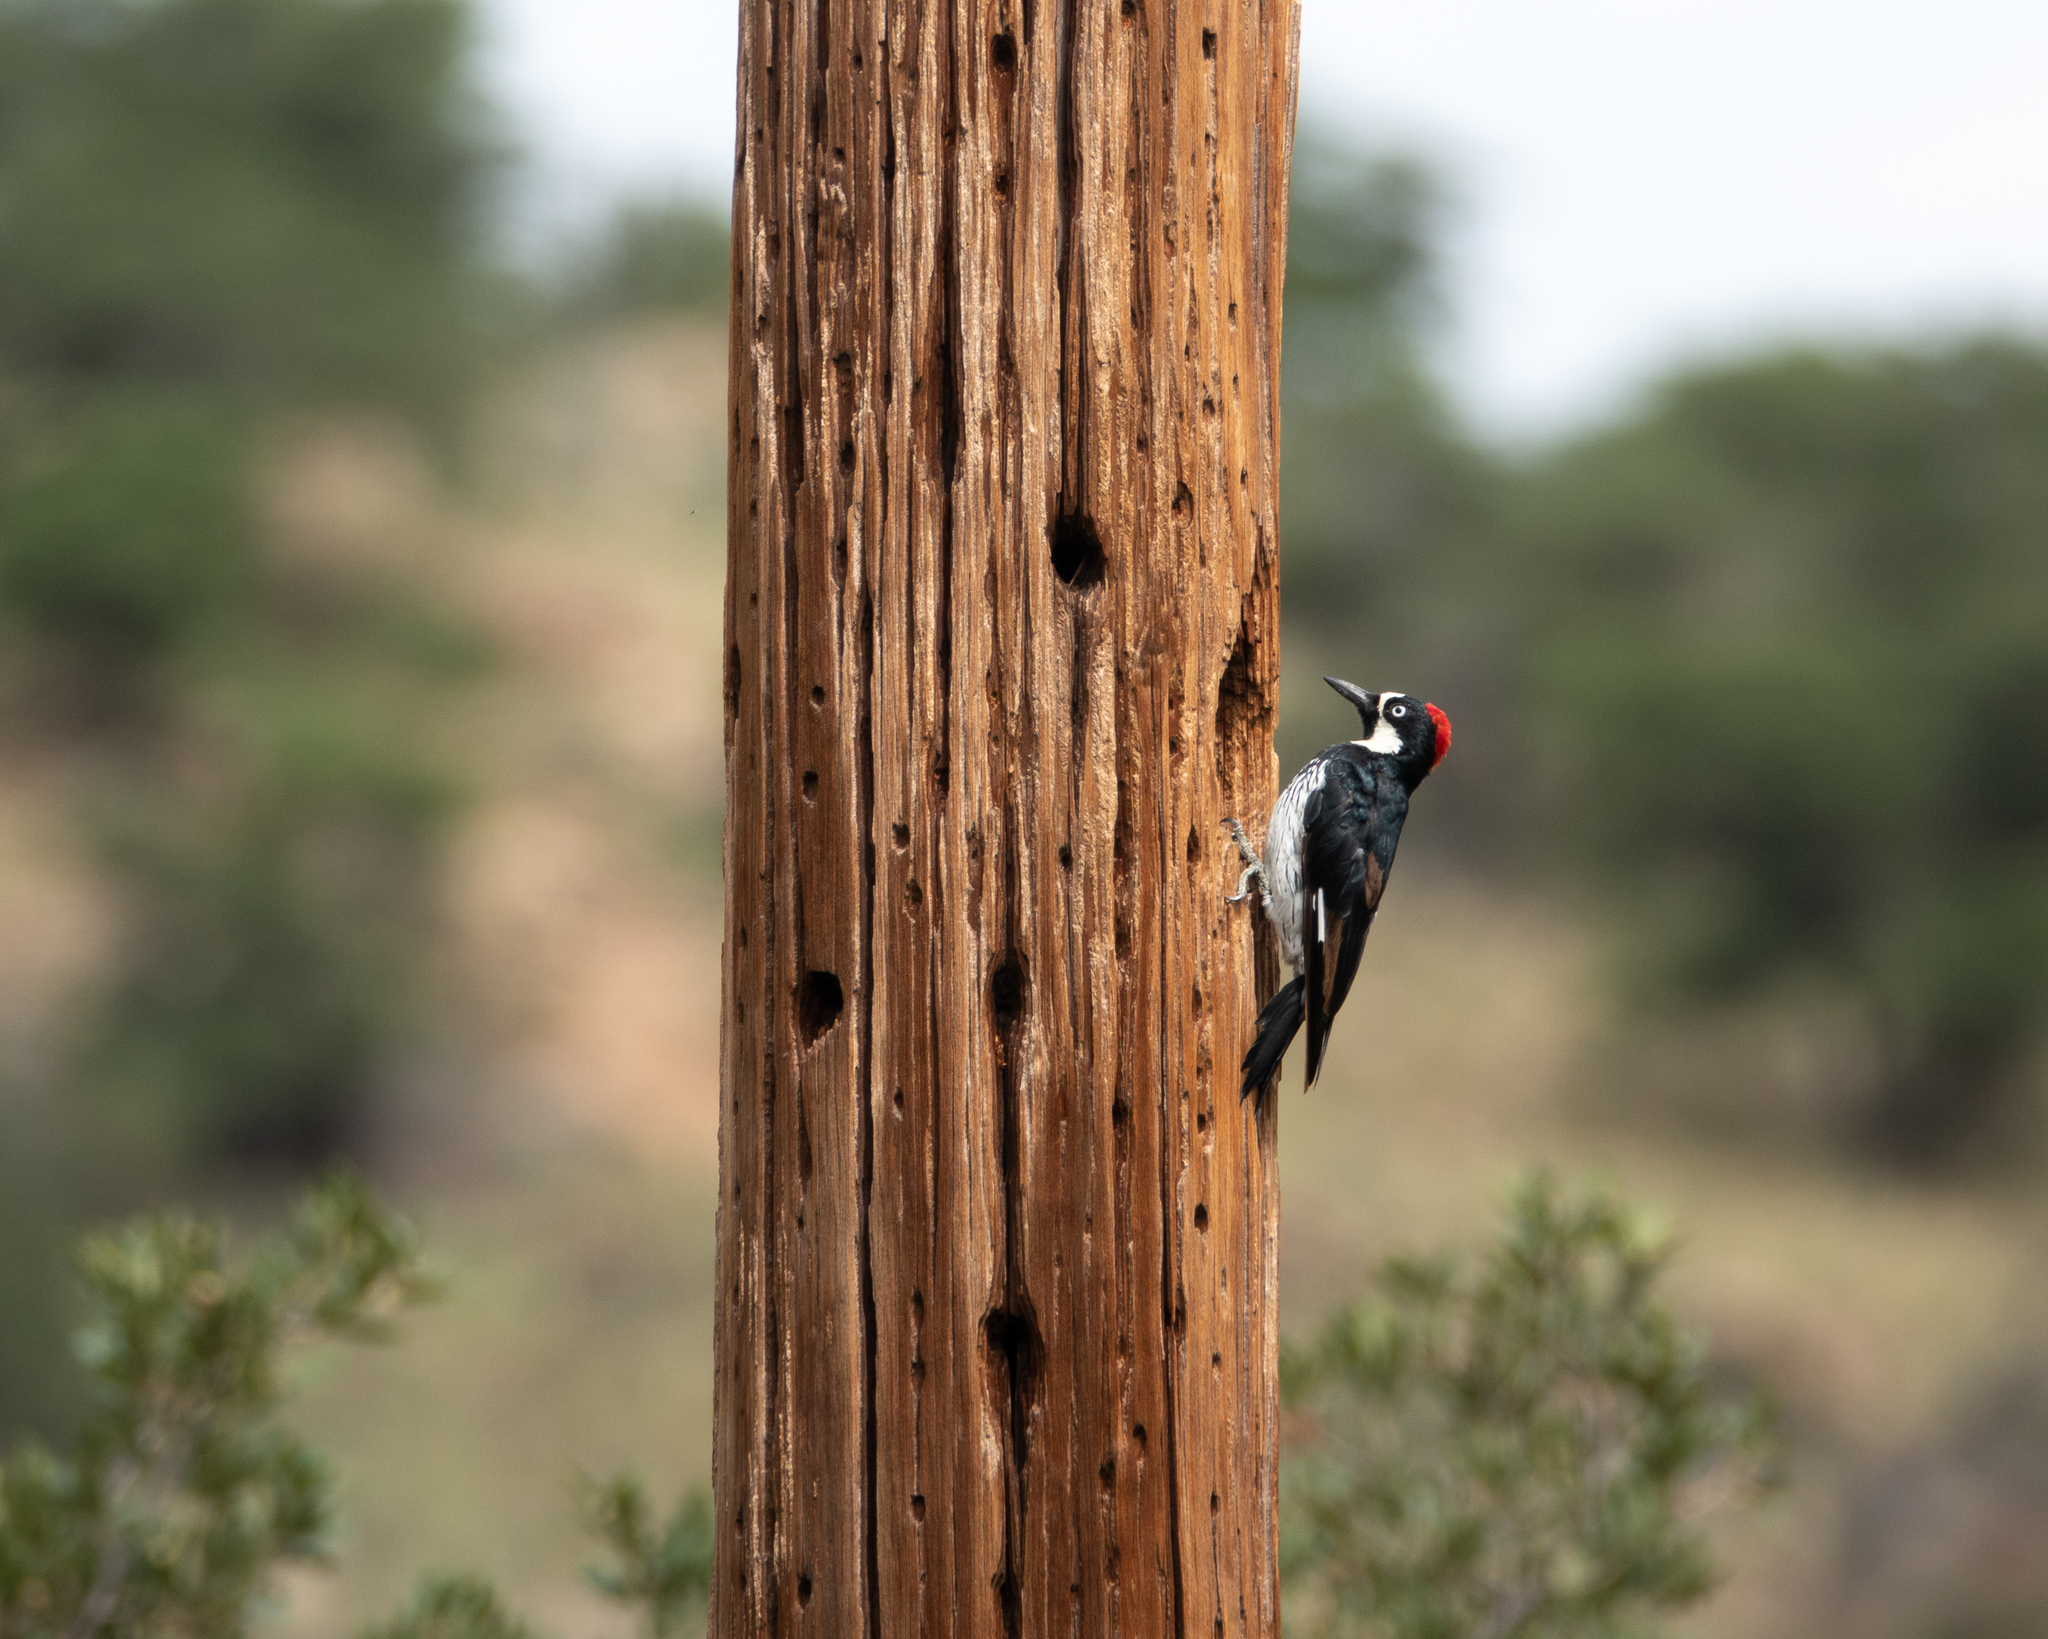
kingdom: Animalia
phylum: Chordata
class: Aves
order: Piciformes
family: Picidae
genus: Melanerpes
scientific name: Melanerpes formicivorus
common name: Acorn woodpecker
